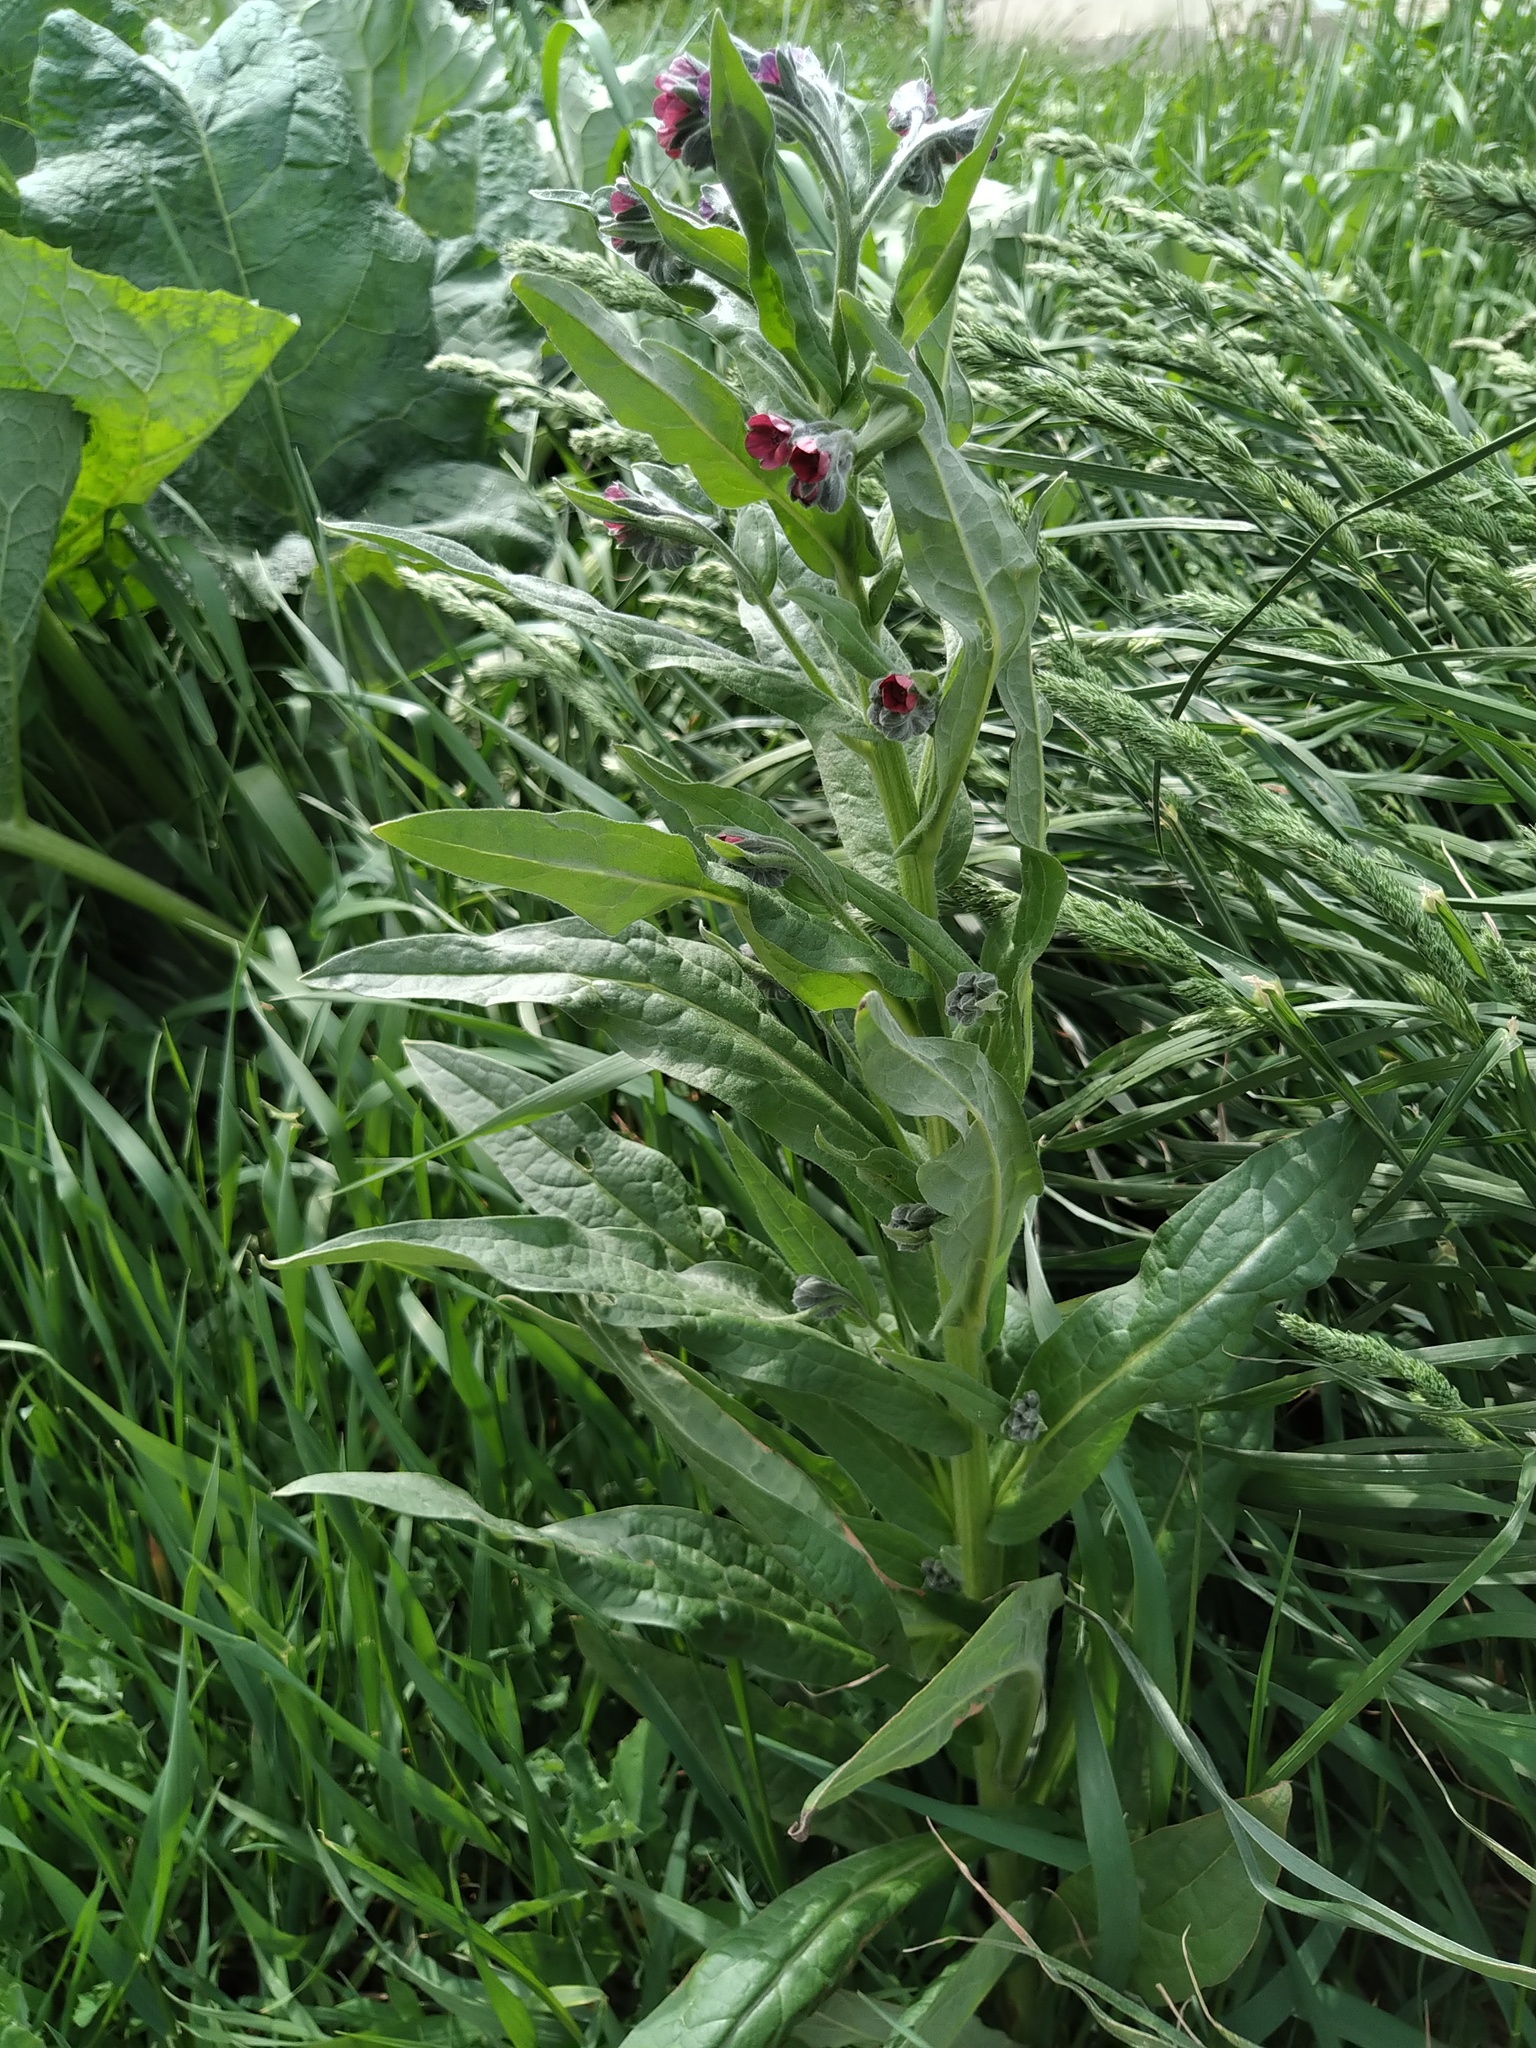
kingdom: Plantae
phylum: Tracheophyta
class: Magnoliopsida
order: Boraginales
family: Boraginaceae
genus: Cynoglossum
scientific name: Cynoglossum officinale
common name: Hound's-tongue
